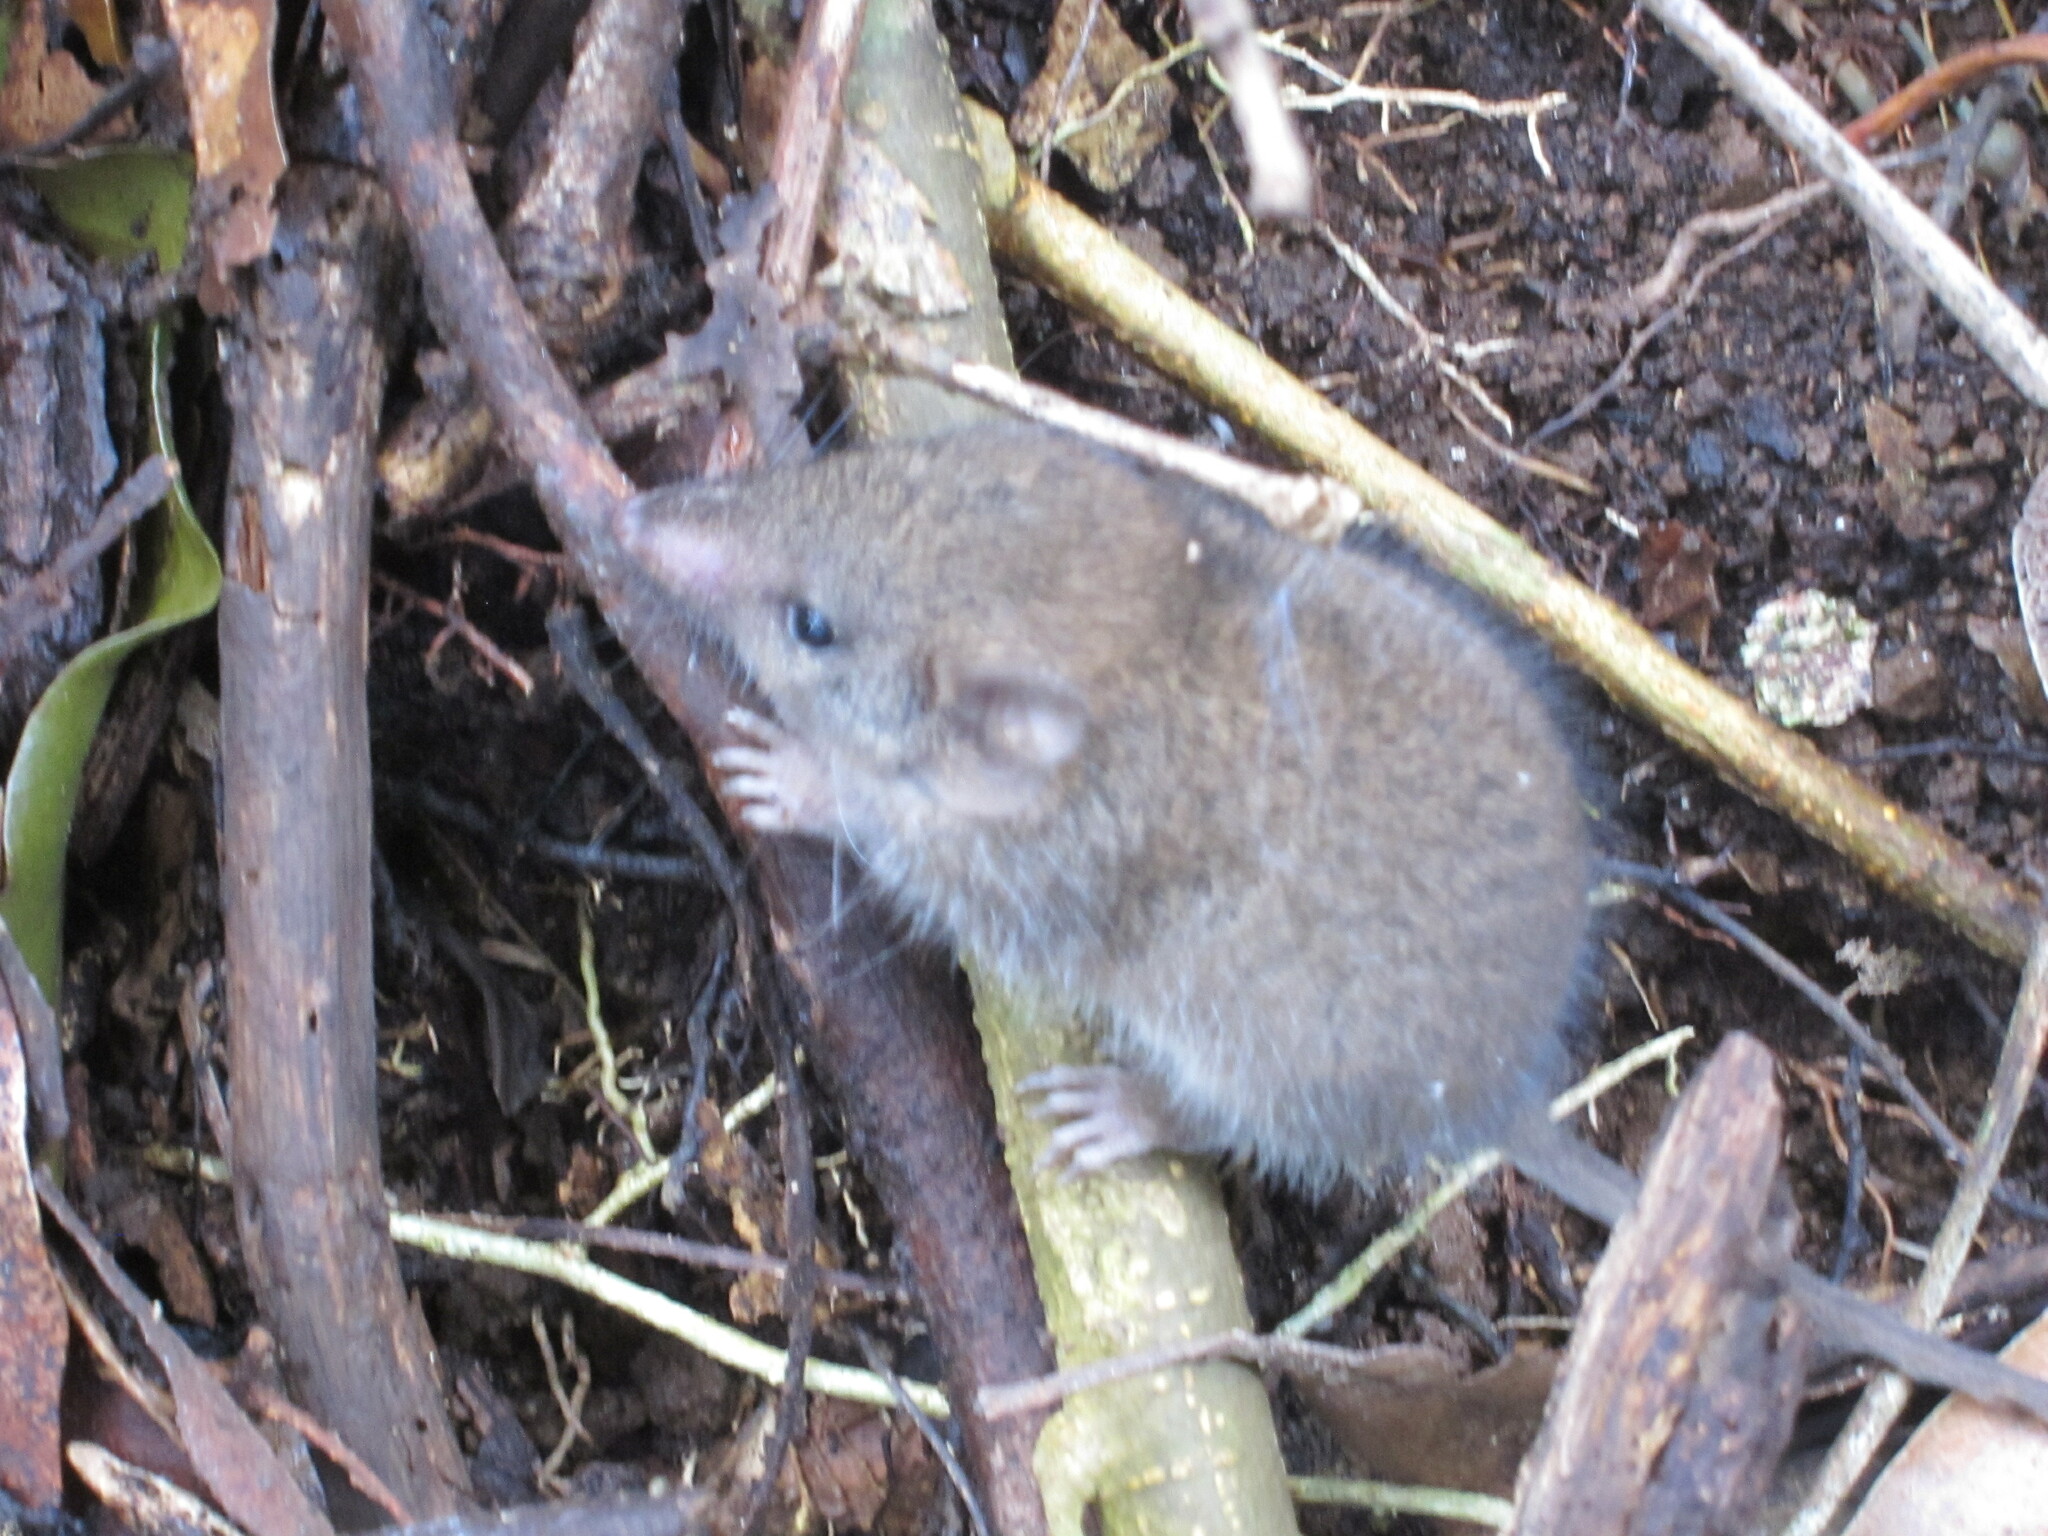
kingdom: Animalia
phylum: Chordata
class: Mammalia
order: Dasyuromorphia
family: Dasyuridae
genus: Antechinus
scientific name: Antechinus stuartii
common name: Brown antechinus
